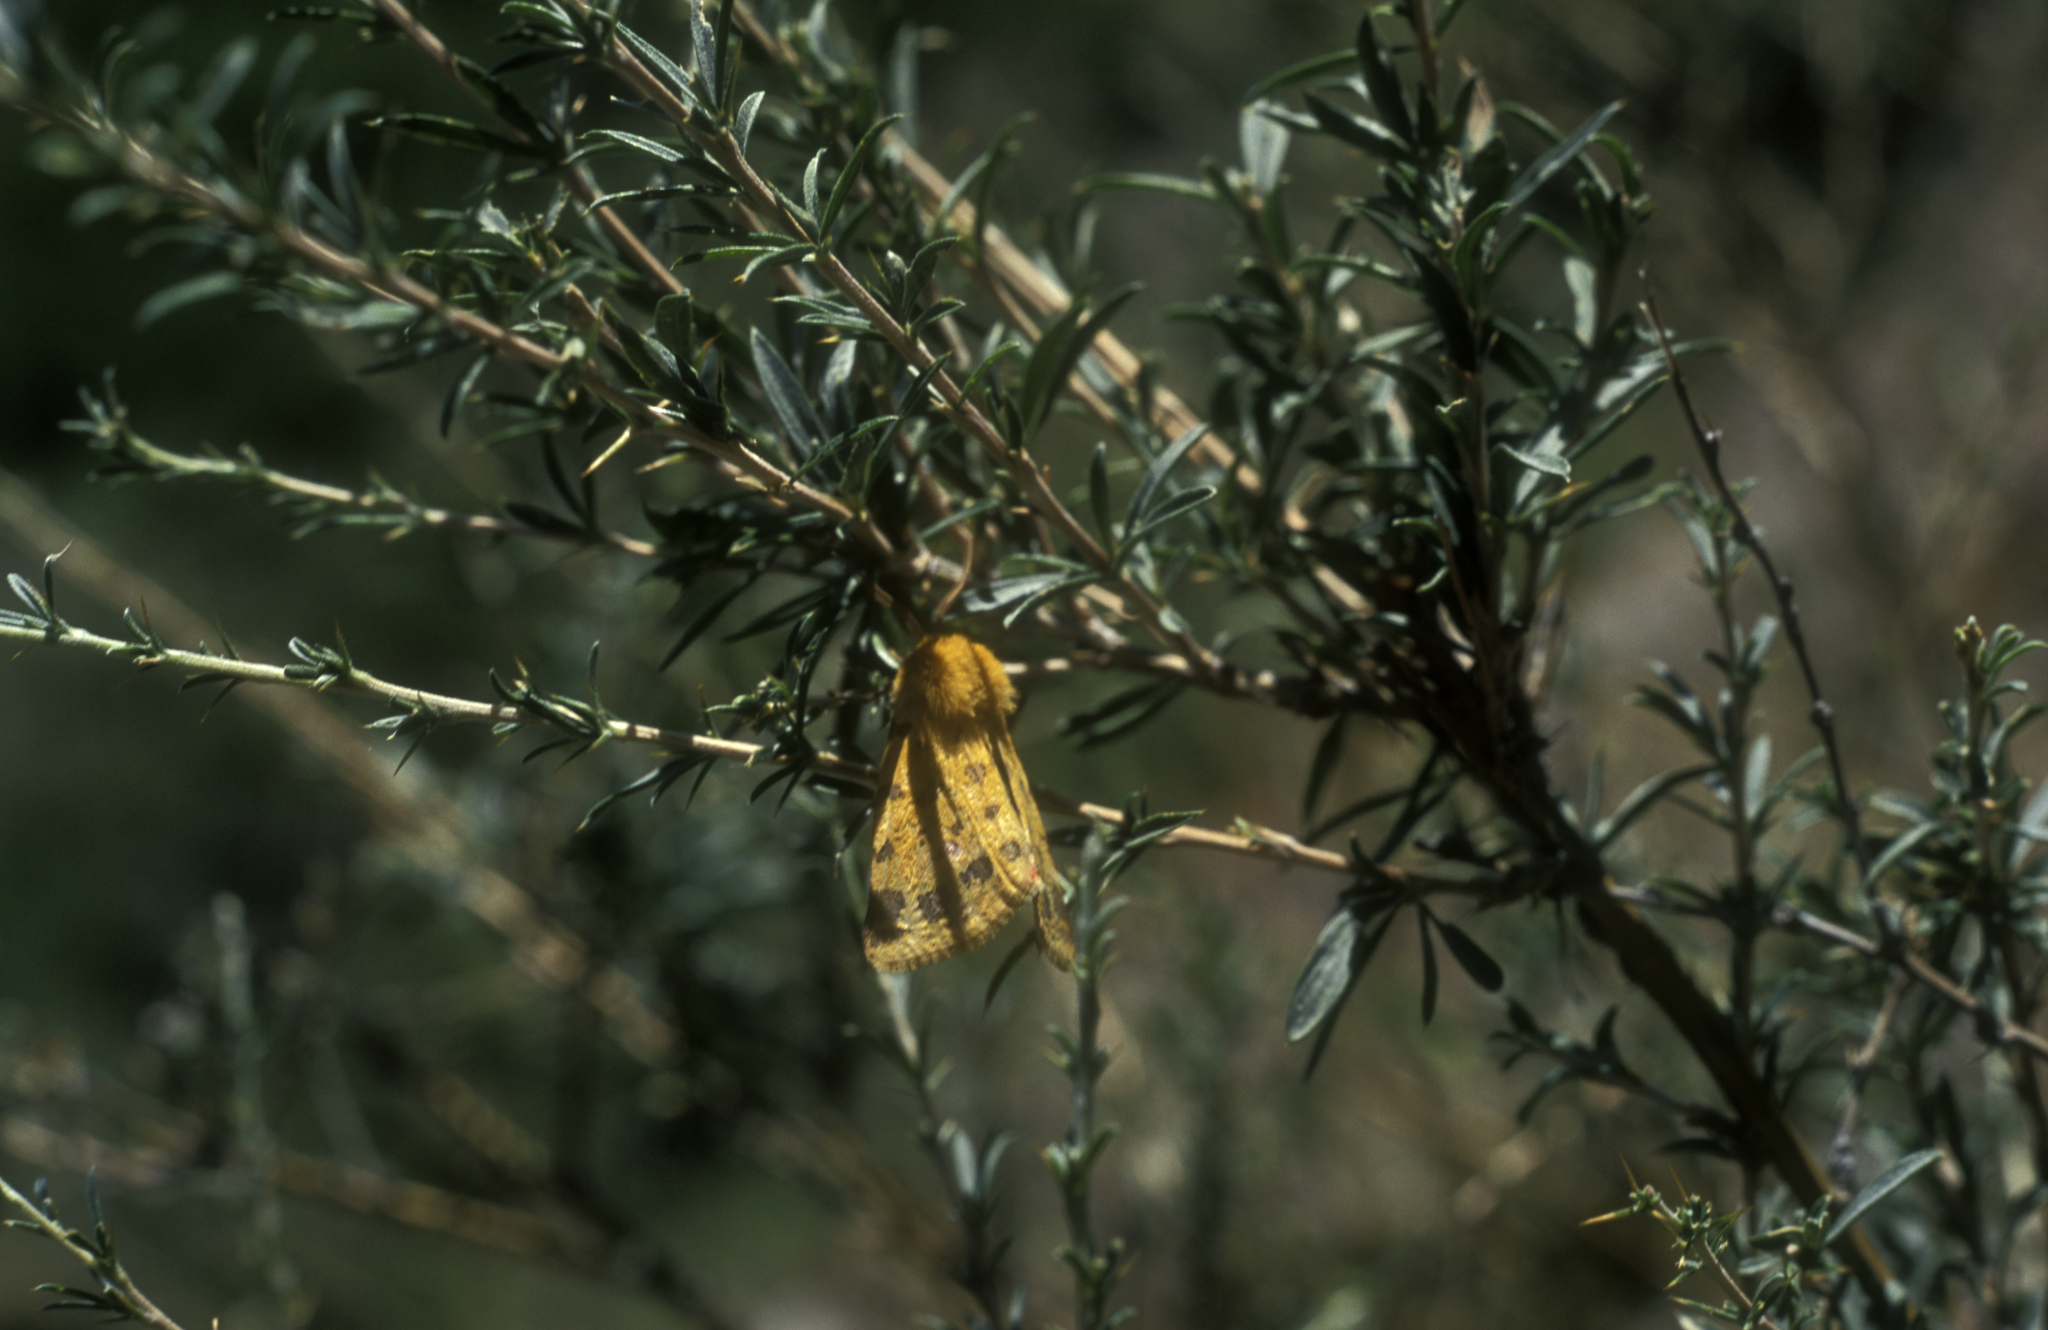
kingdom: Plantae
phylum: Tracheophyta
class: Magnoliopsida
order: Fabales
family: Fabaceae
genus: Caragana
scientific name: Caragana pygmaea
